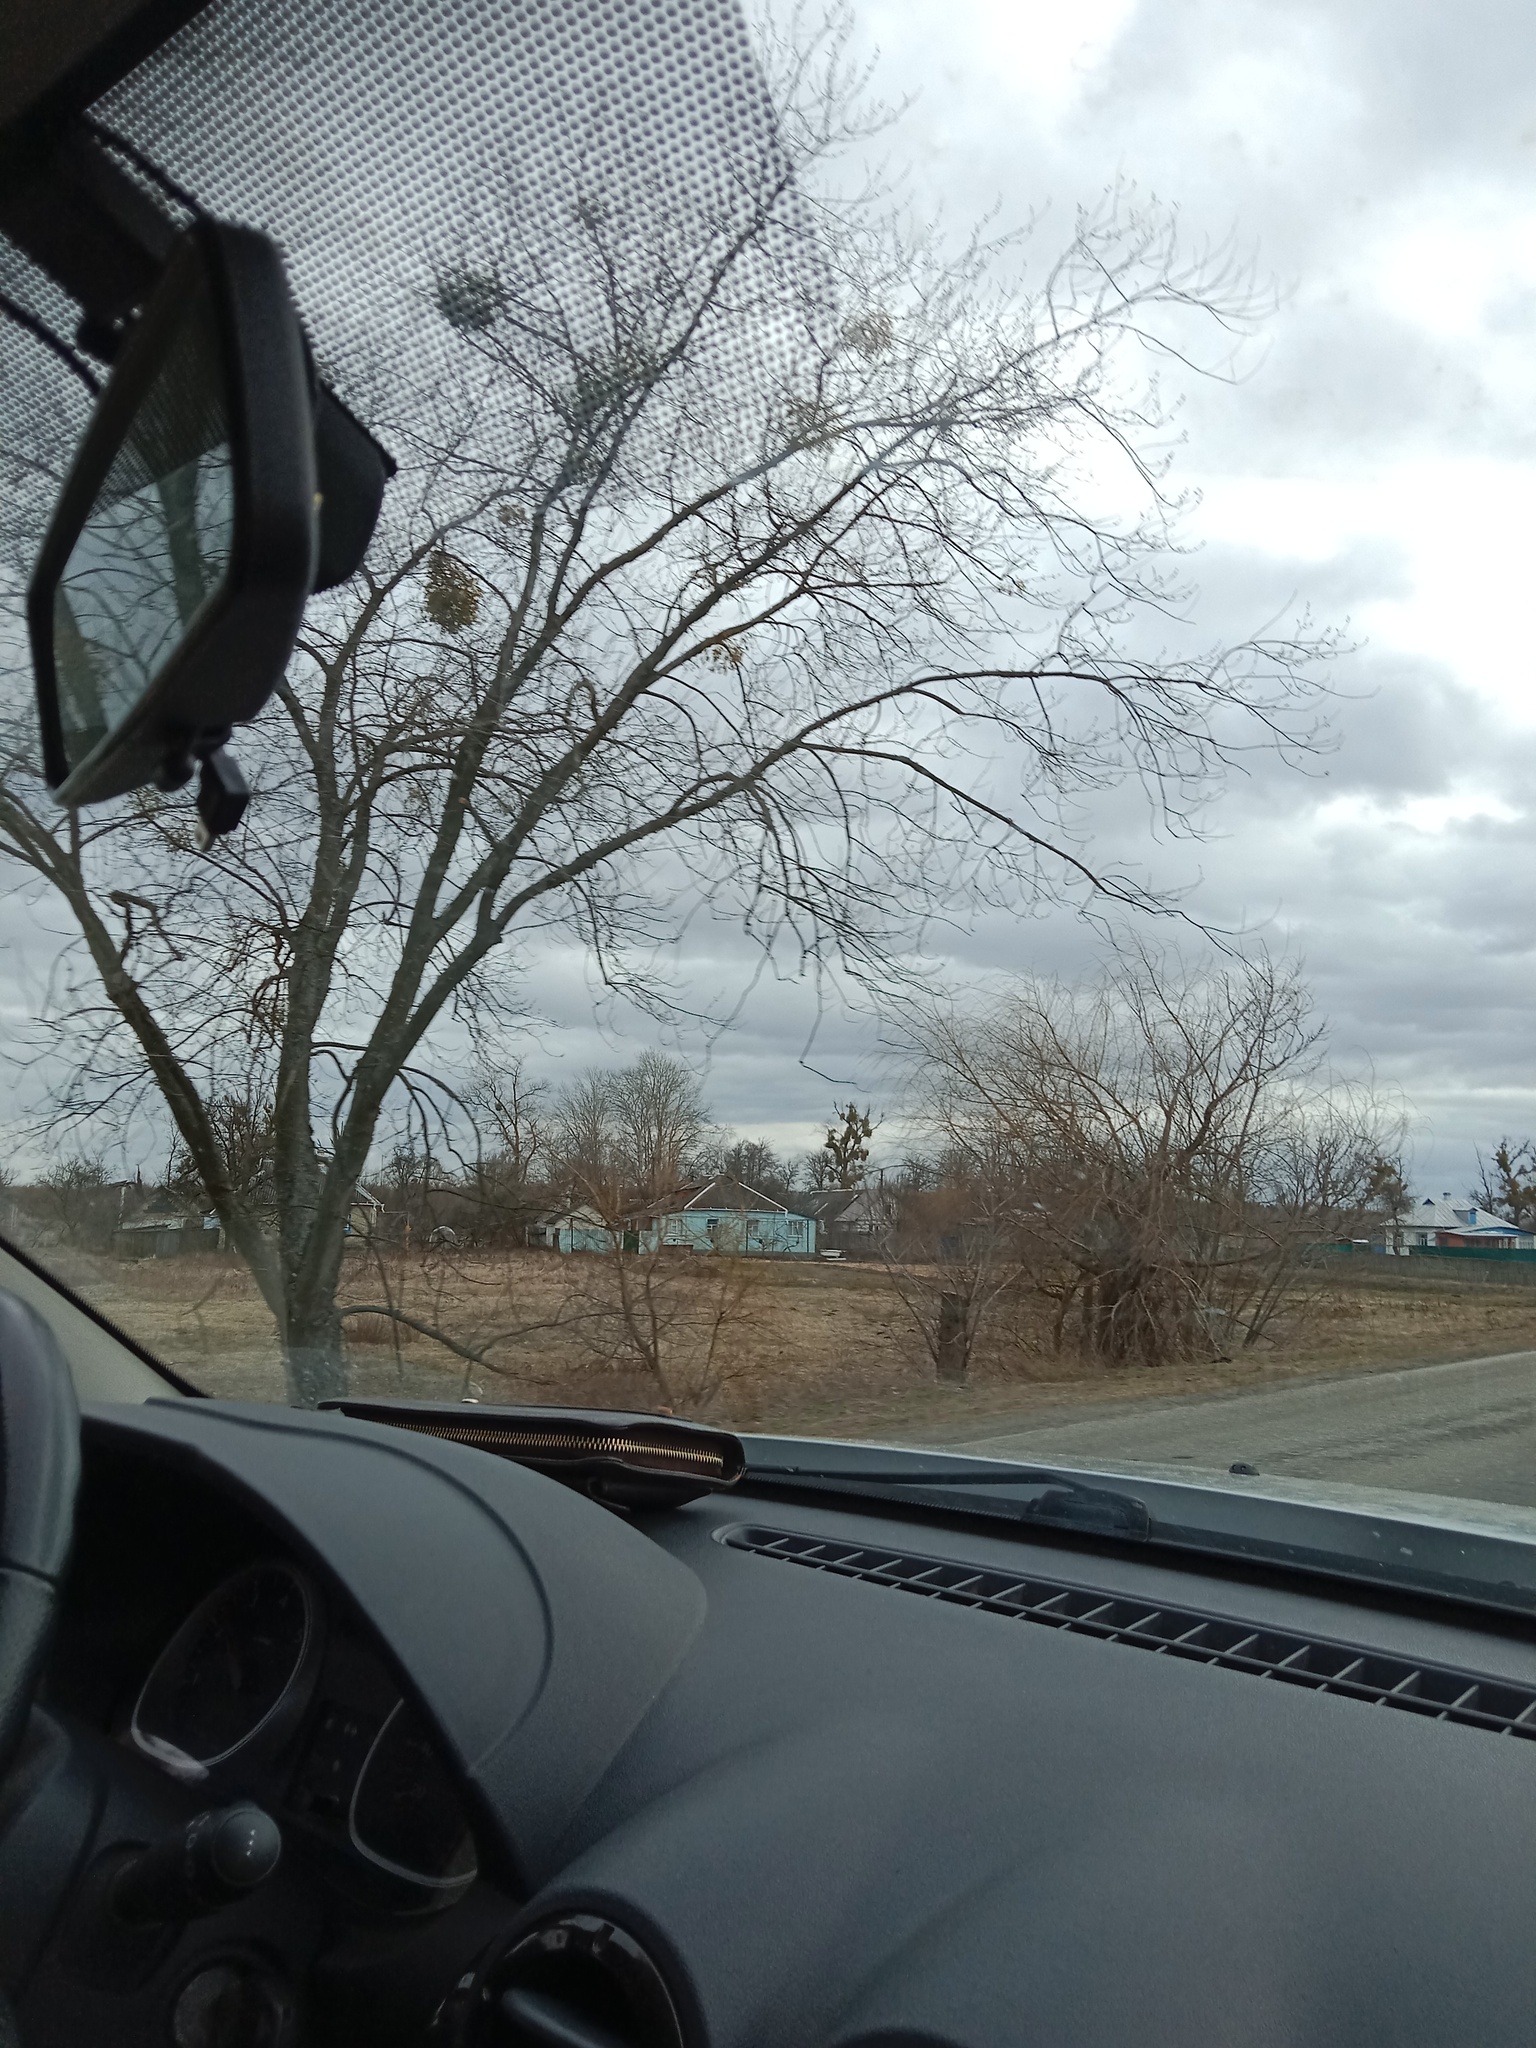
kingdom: Plantae
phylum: Tracheophyta
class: Magnoliopsida
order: Santalales
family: Viscaceae
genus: Viscum
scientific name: Viscum album
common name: Mistletoe
